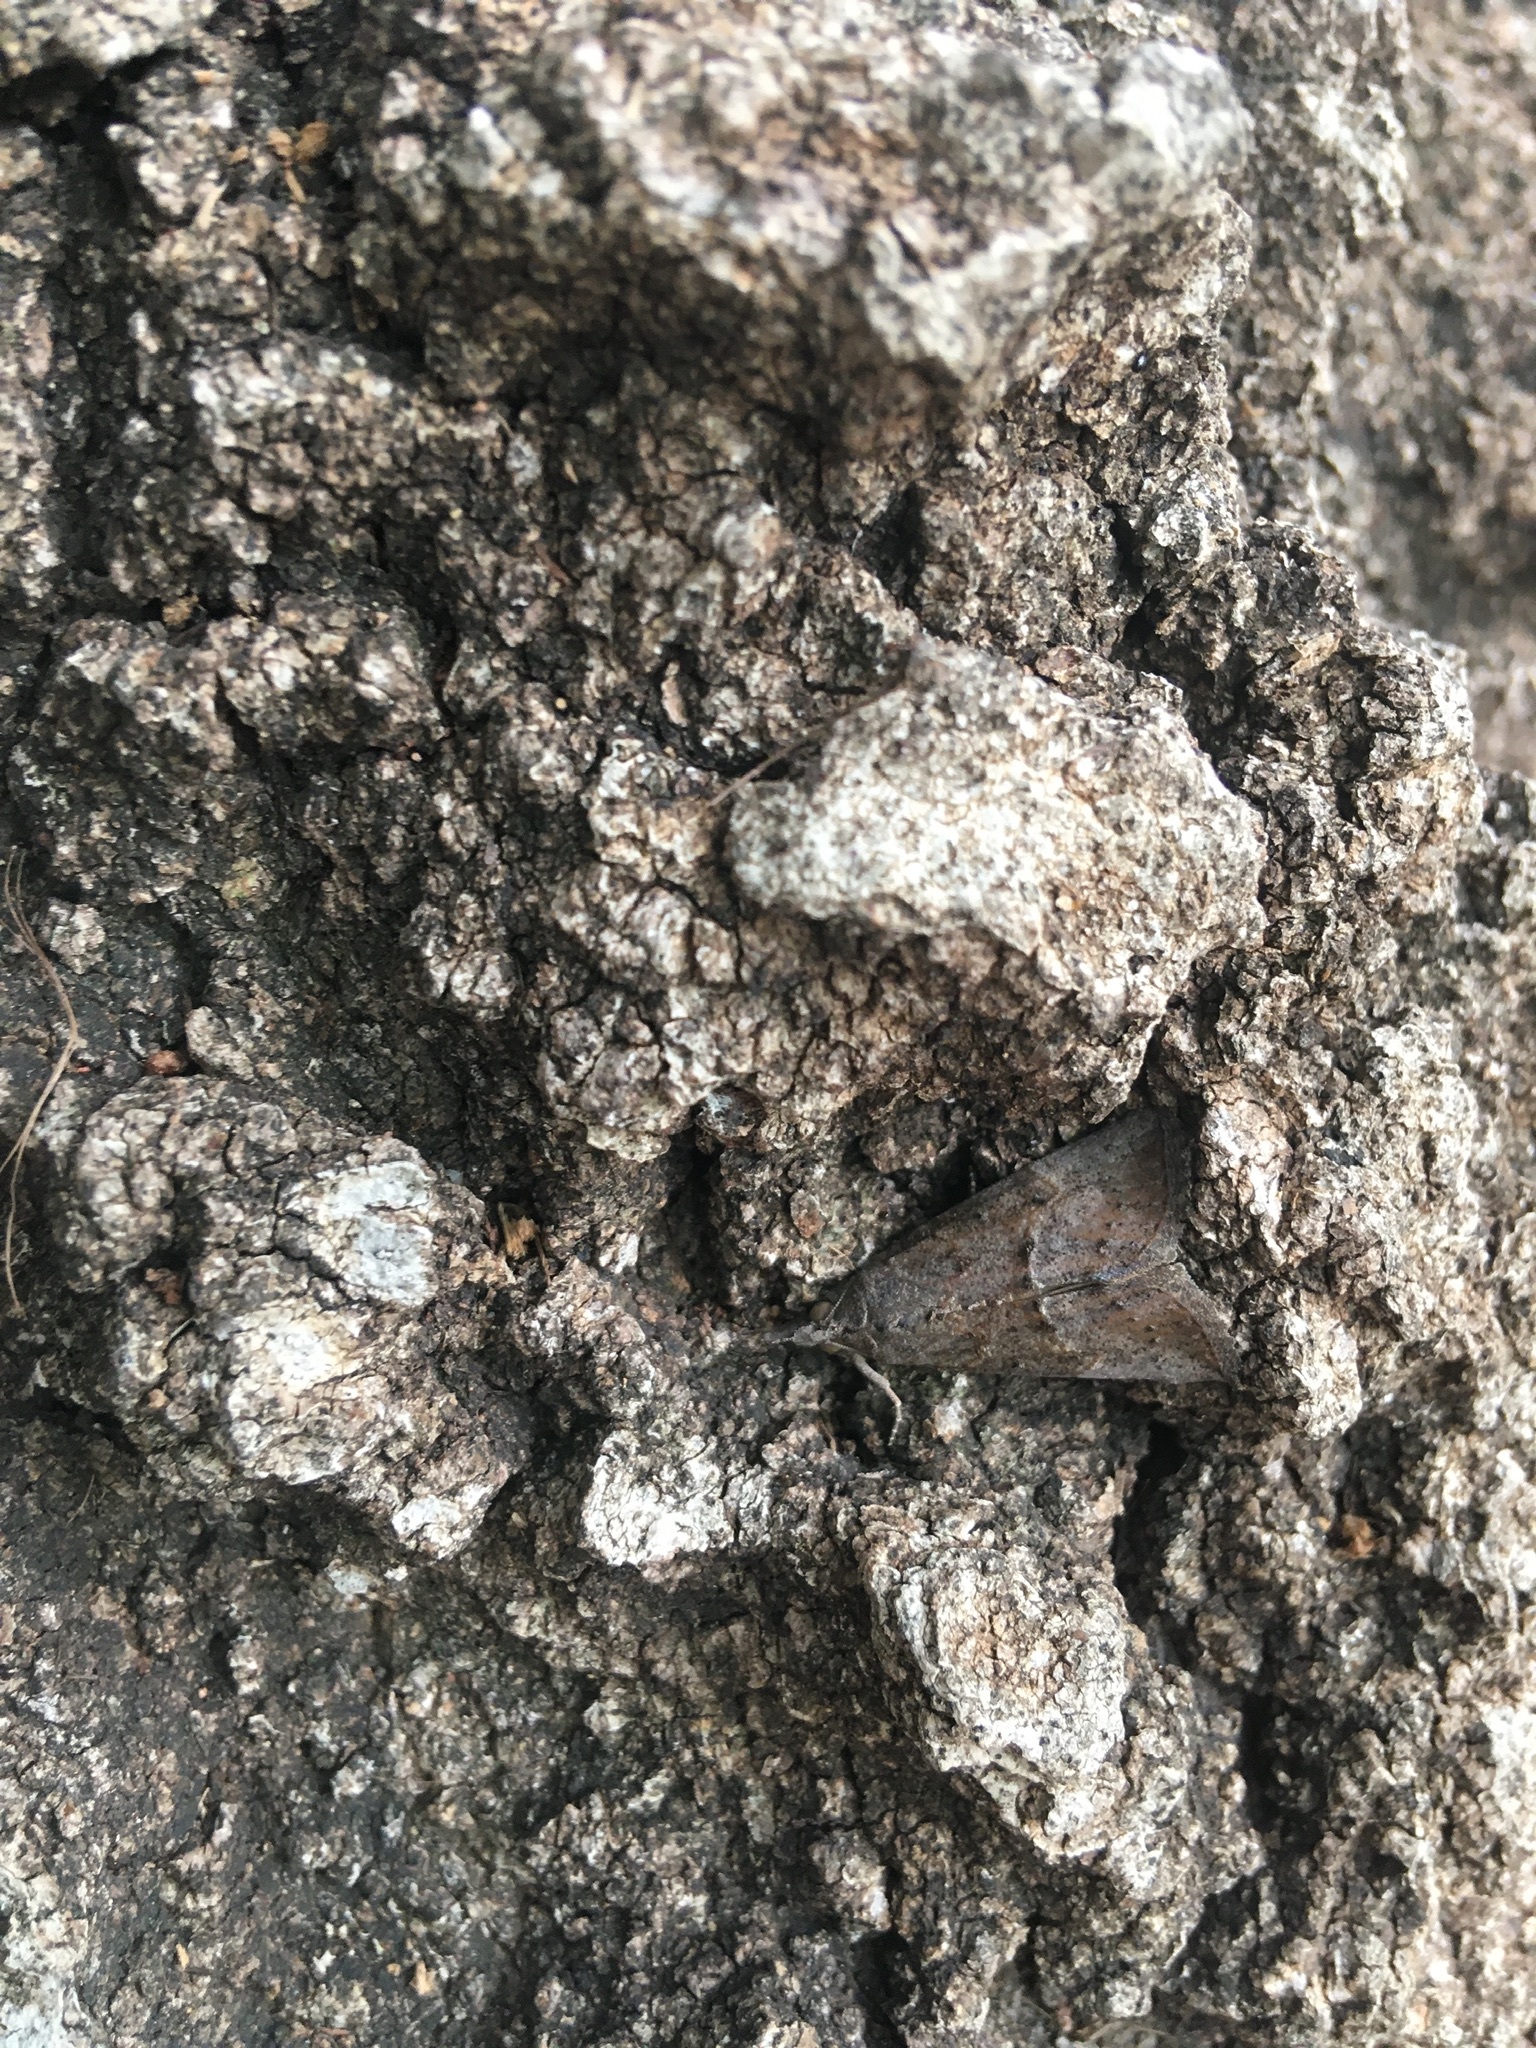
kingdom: Animalia
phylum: Arthropoda
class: Insecta
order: Lepidoptera
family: Erebidae
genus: Hypena
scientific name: Hypena scabra
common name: Green cloverworm
